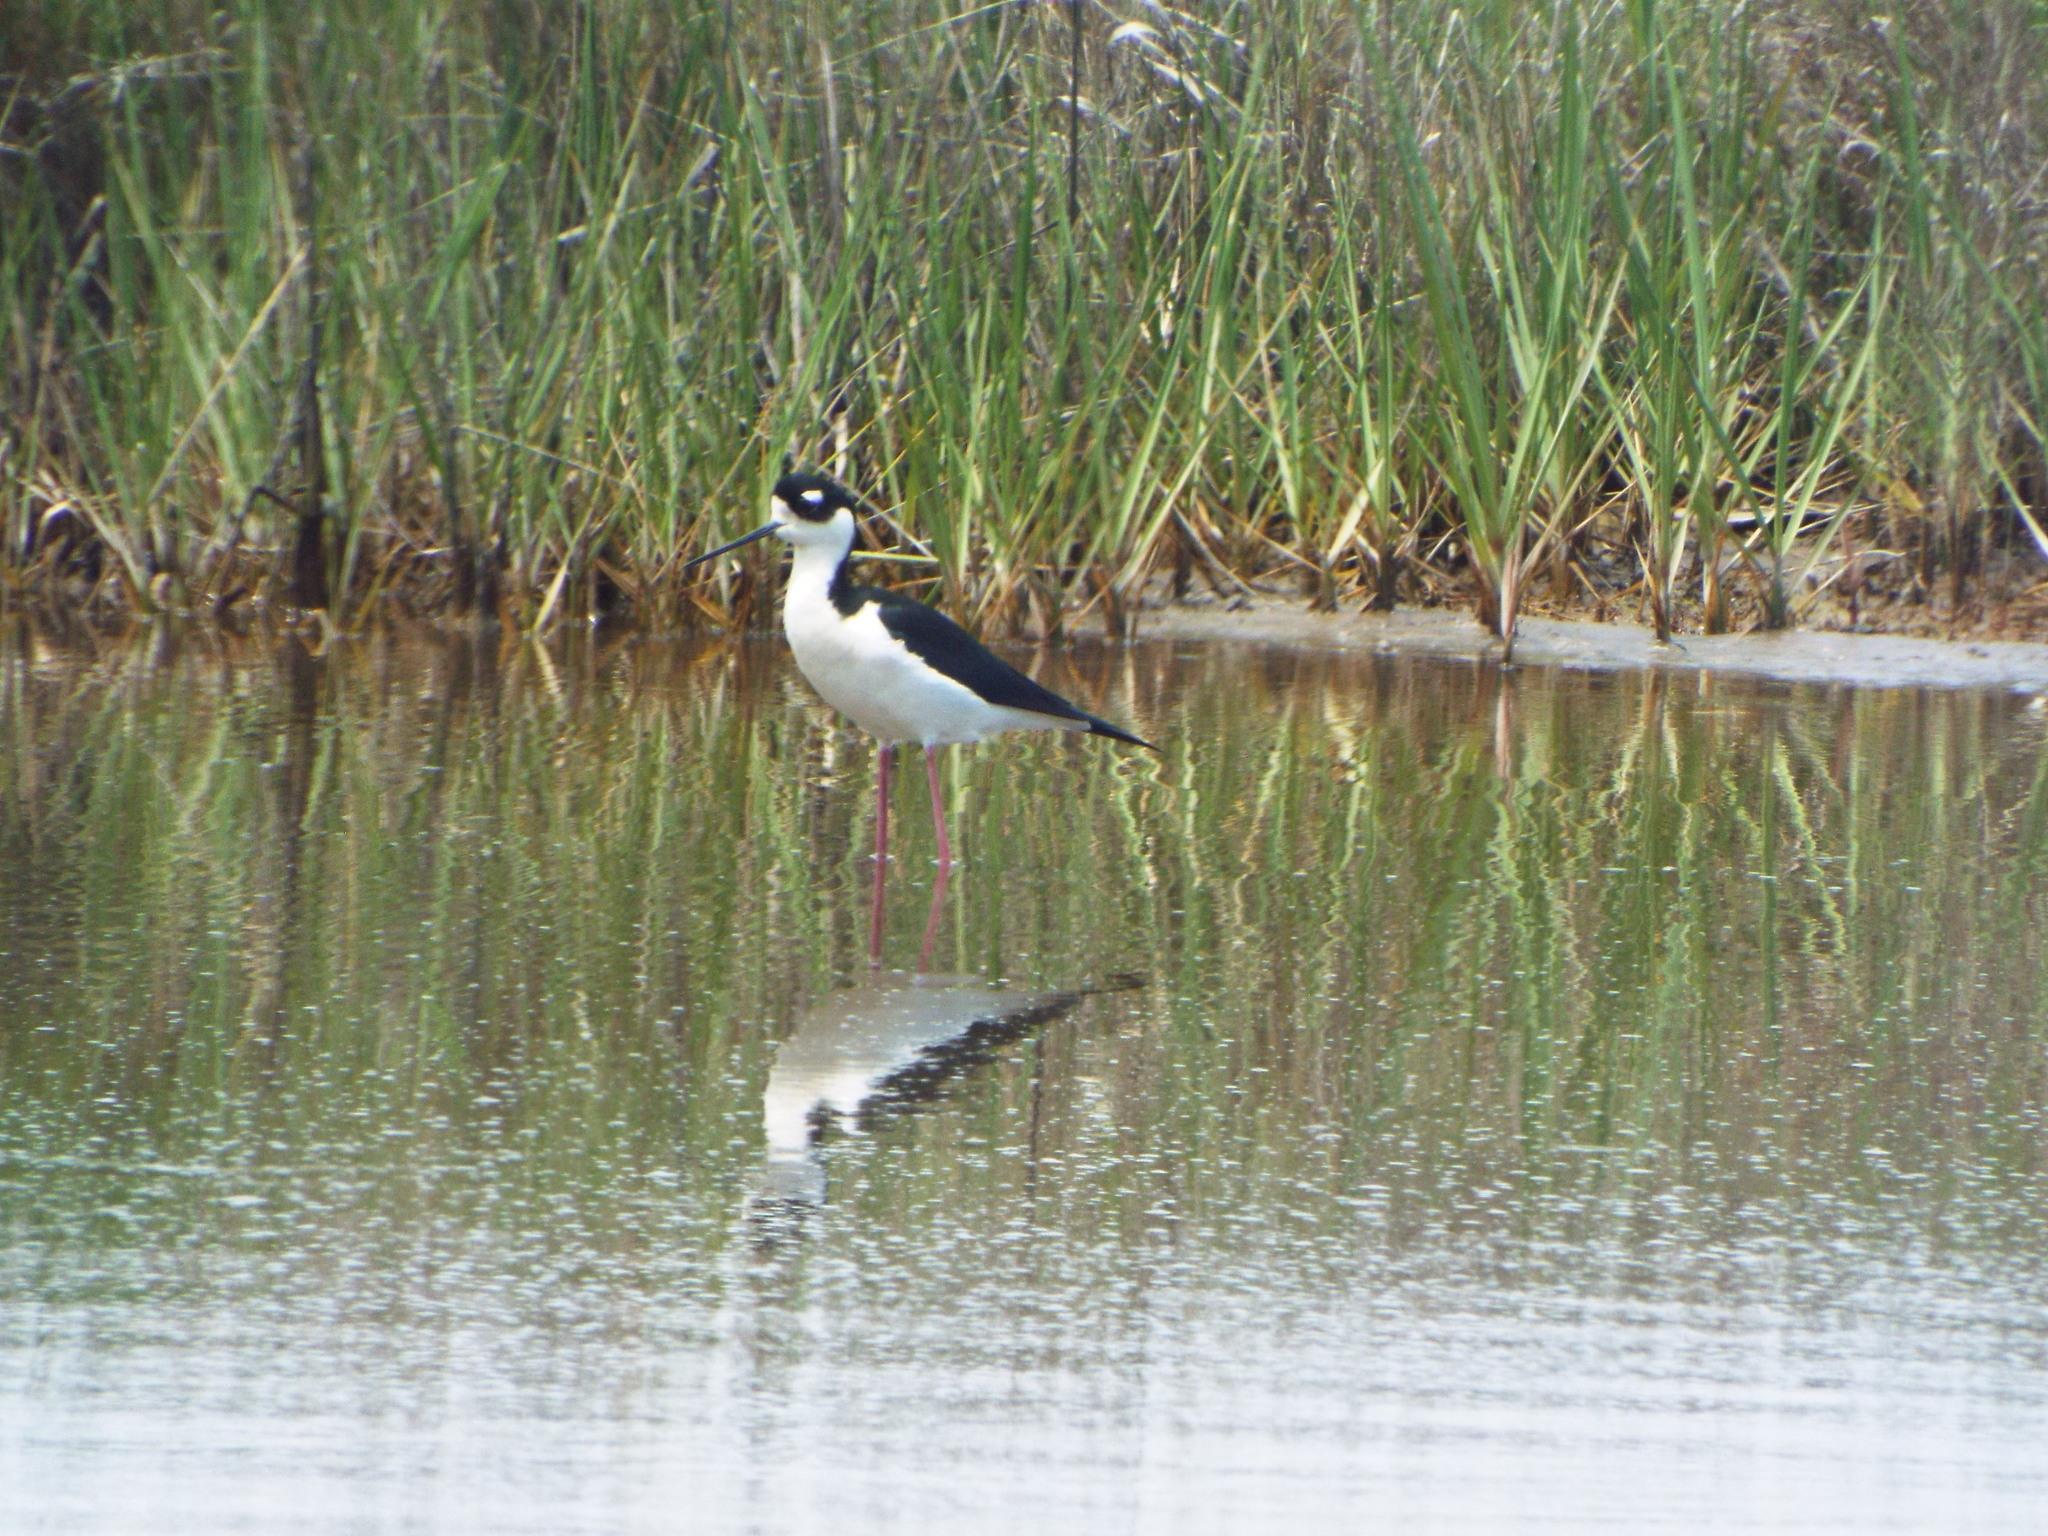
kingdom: Animalia
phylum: Chordata
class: Aves
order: Charadriiformes
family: Recurvirostridae
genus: Himantopus
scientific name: Himantopus mexicanus
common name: Black-necked stilt
